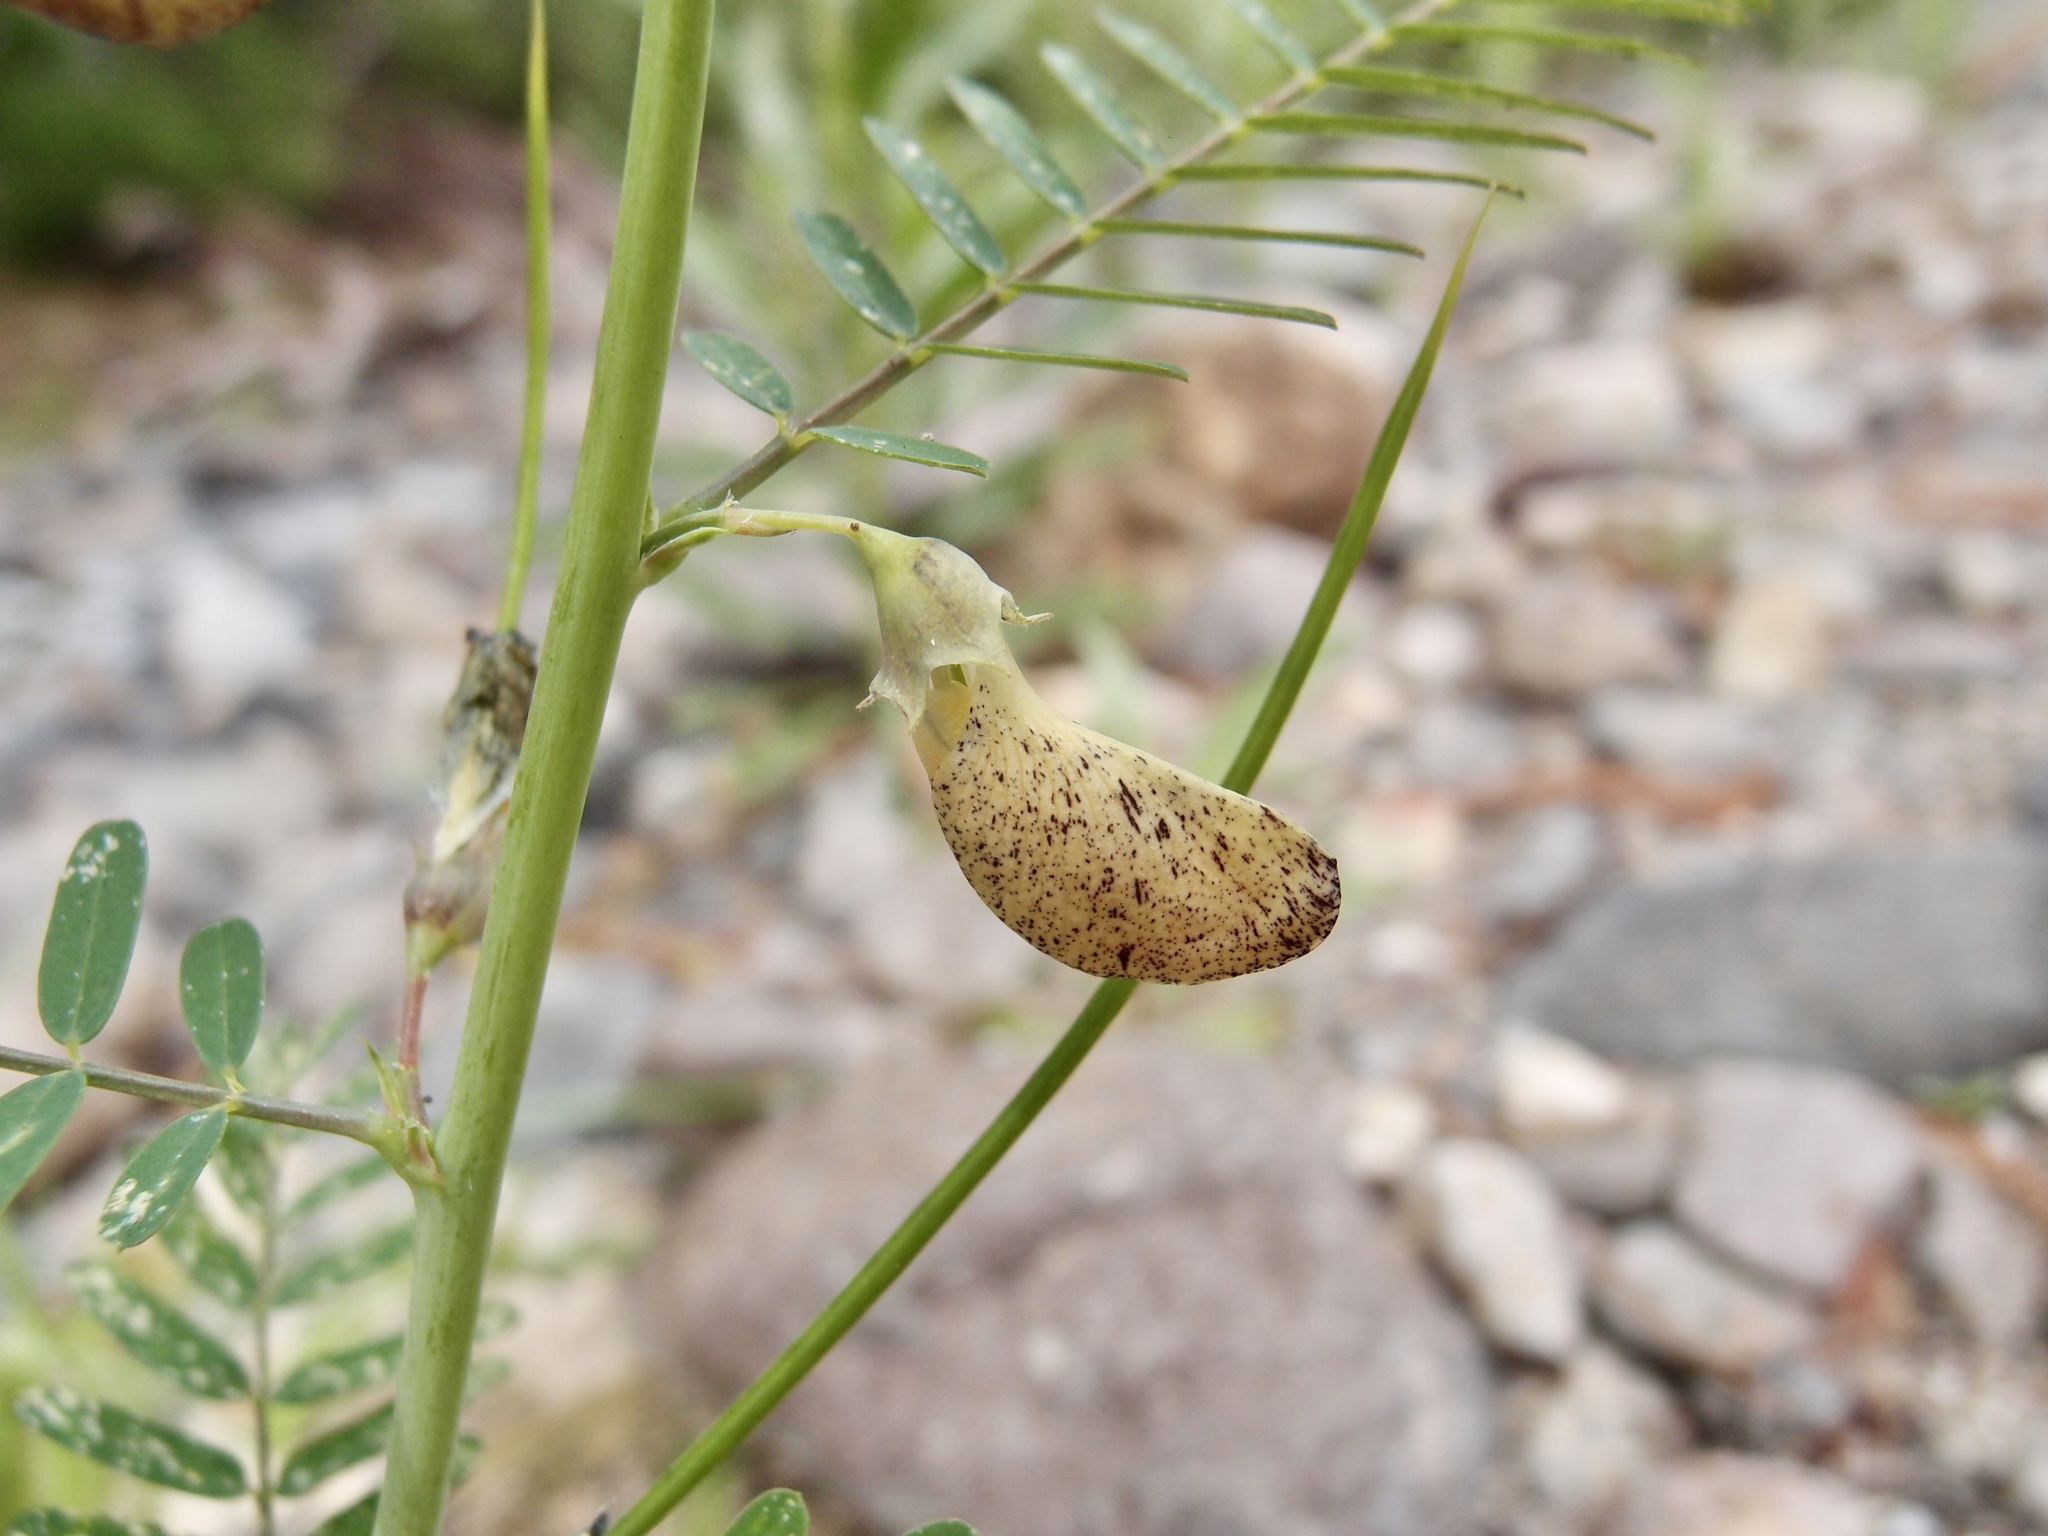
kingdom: Plantae
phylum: Tracheophyta
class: Magnoliopsida
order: Fabales
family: Fabaceae
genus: Sesbania
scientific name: Sesbania herbacea
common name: Bigpod sesbania
